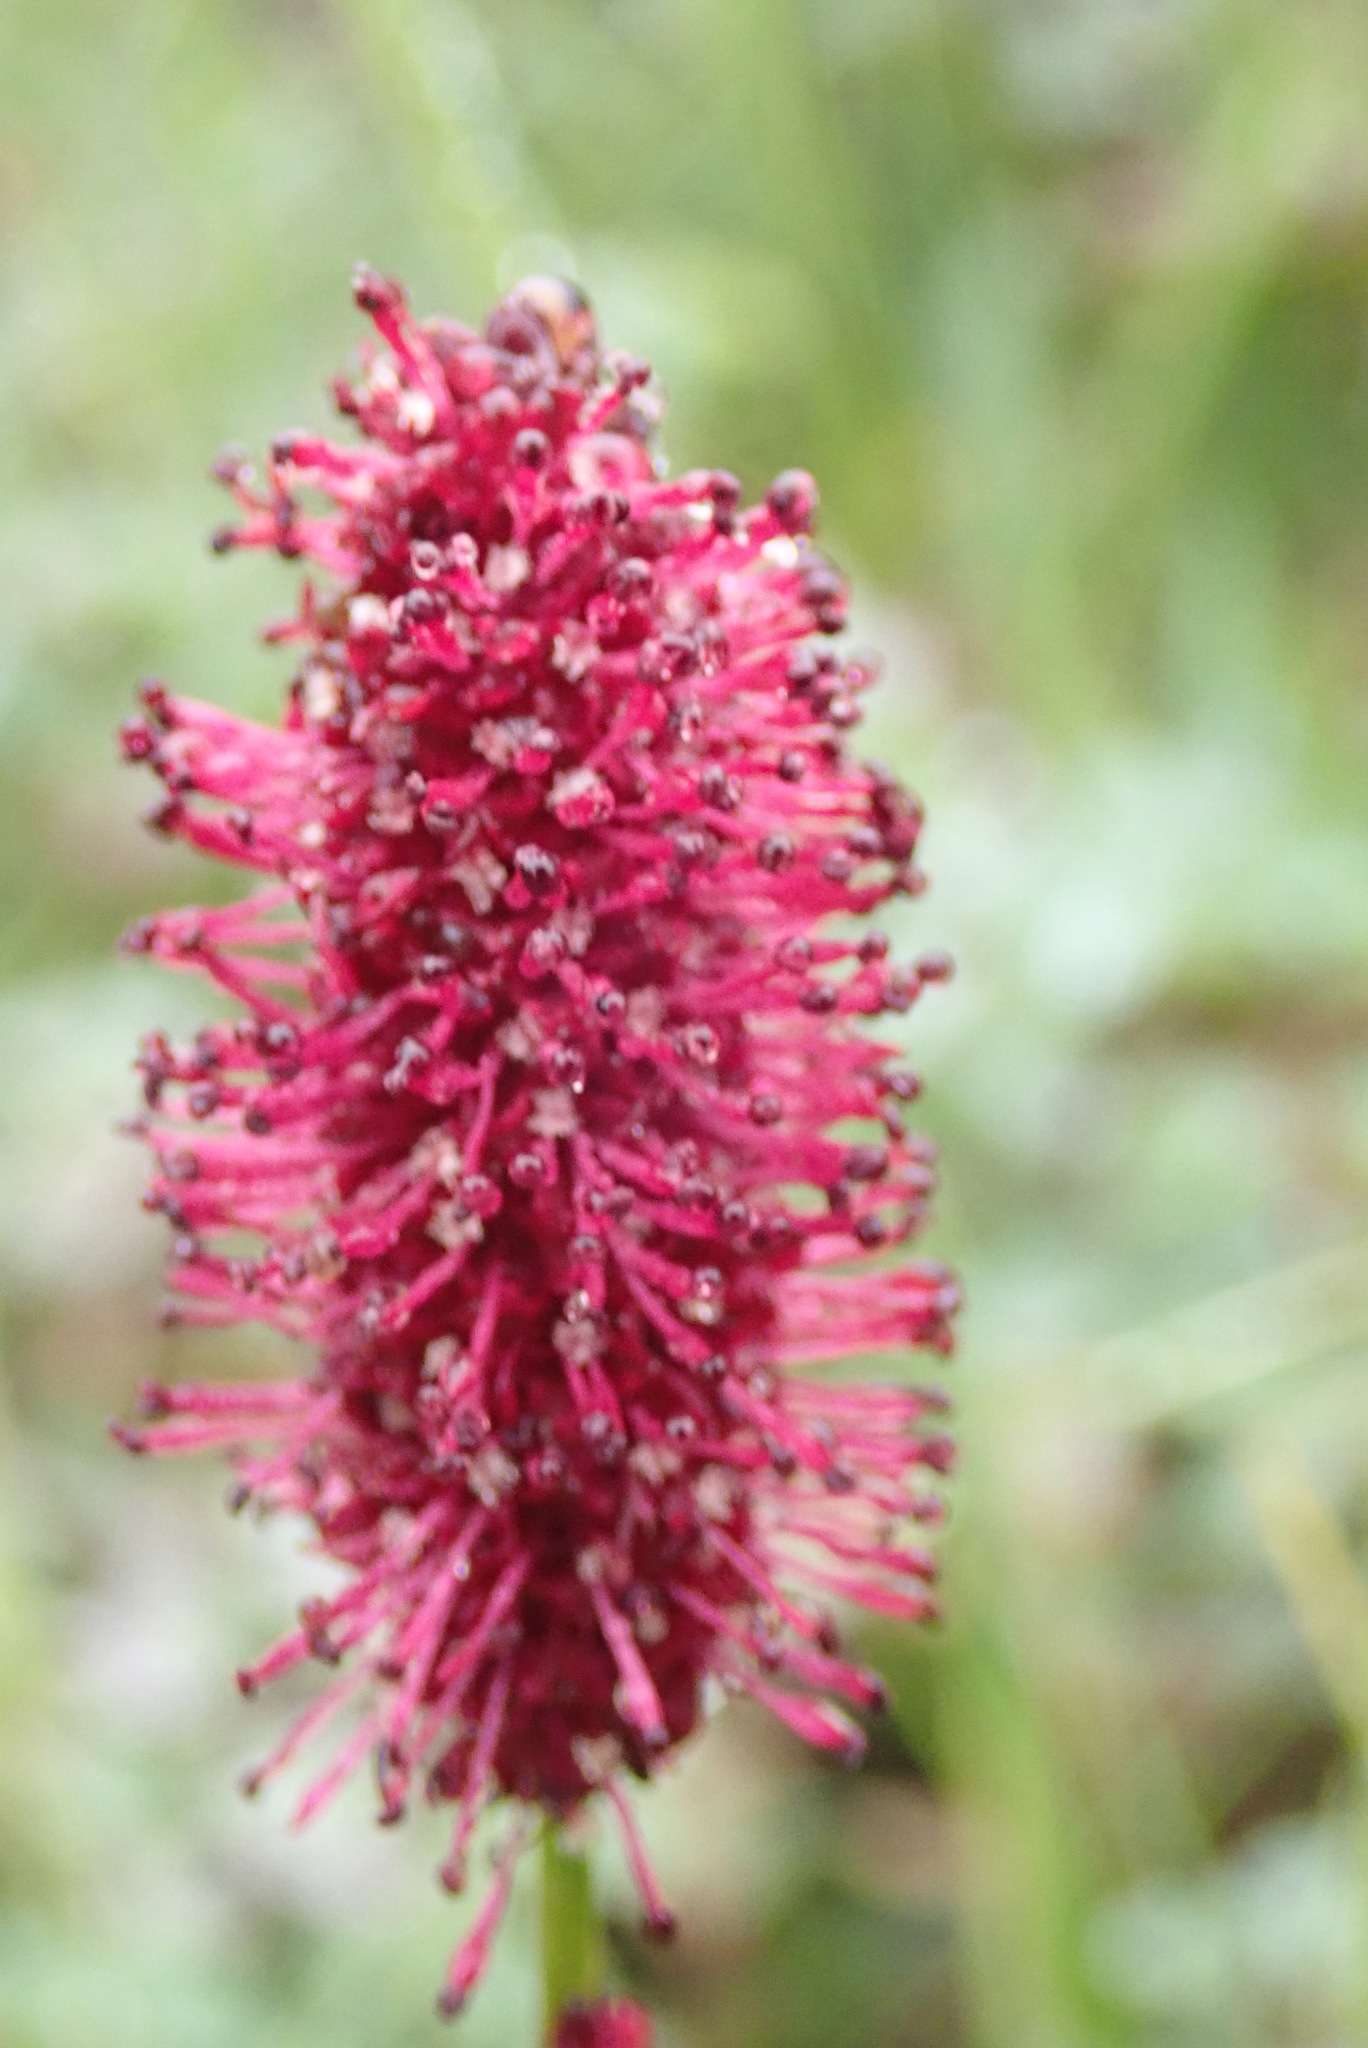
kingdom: Plantae
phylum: Tracheophyta
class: Magnoliopsida
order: Rosales
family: Rosaceae
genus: Sanguisorba
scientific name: Sanguisorba officinalis
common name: Great burnet
